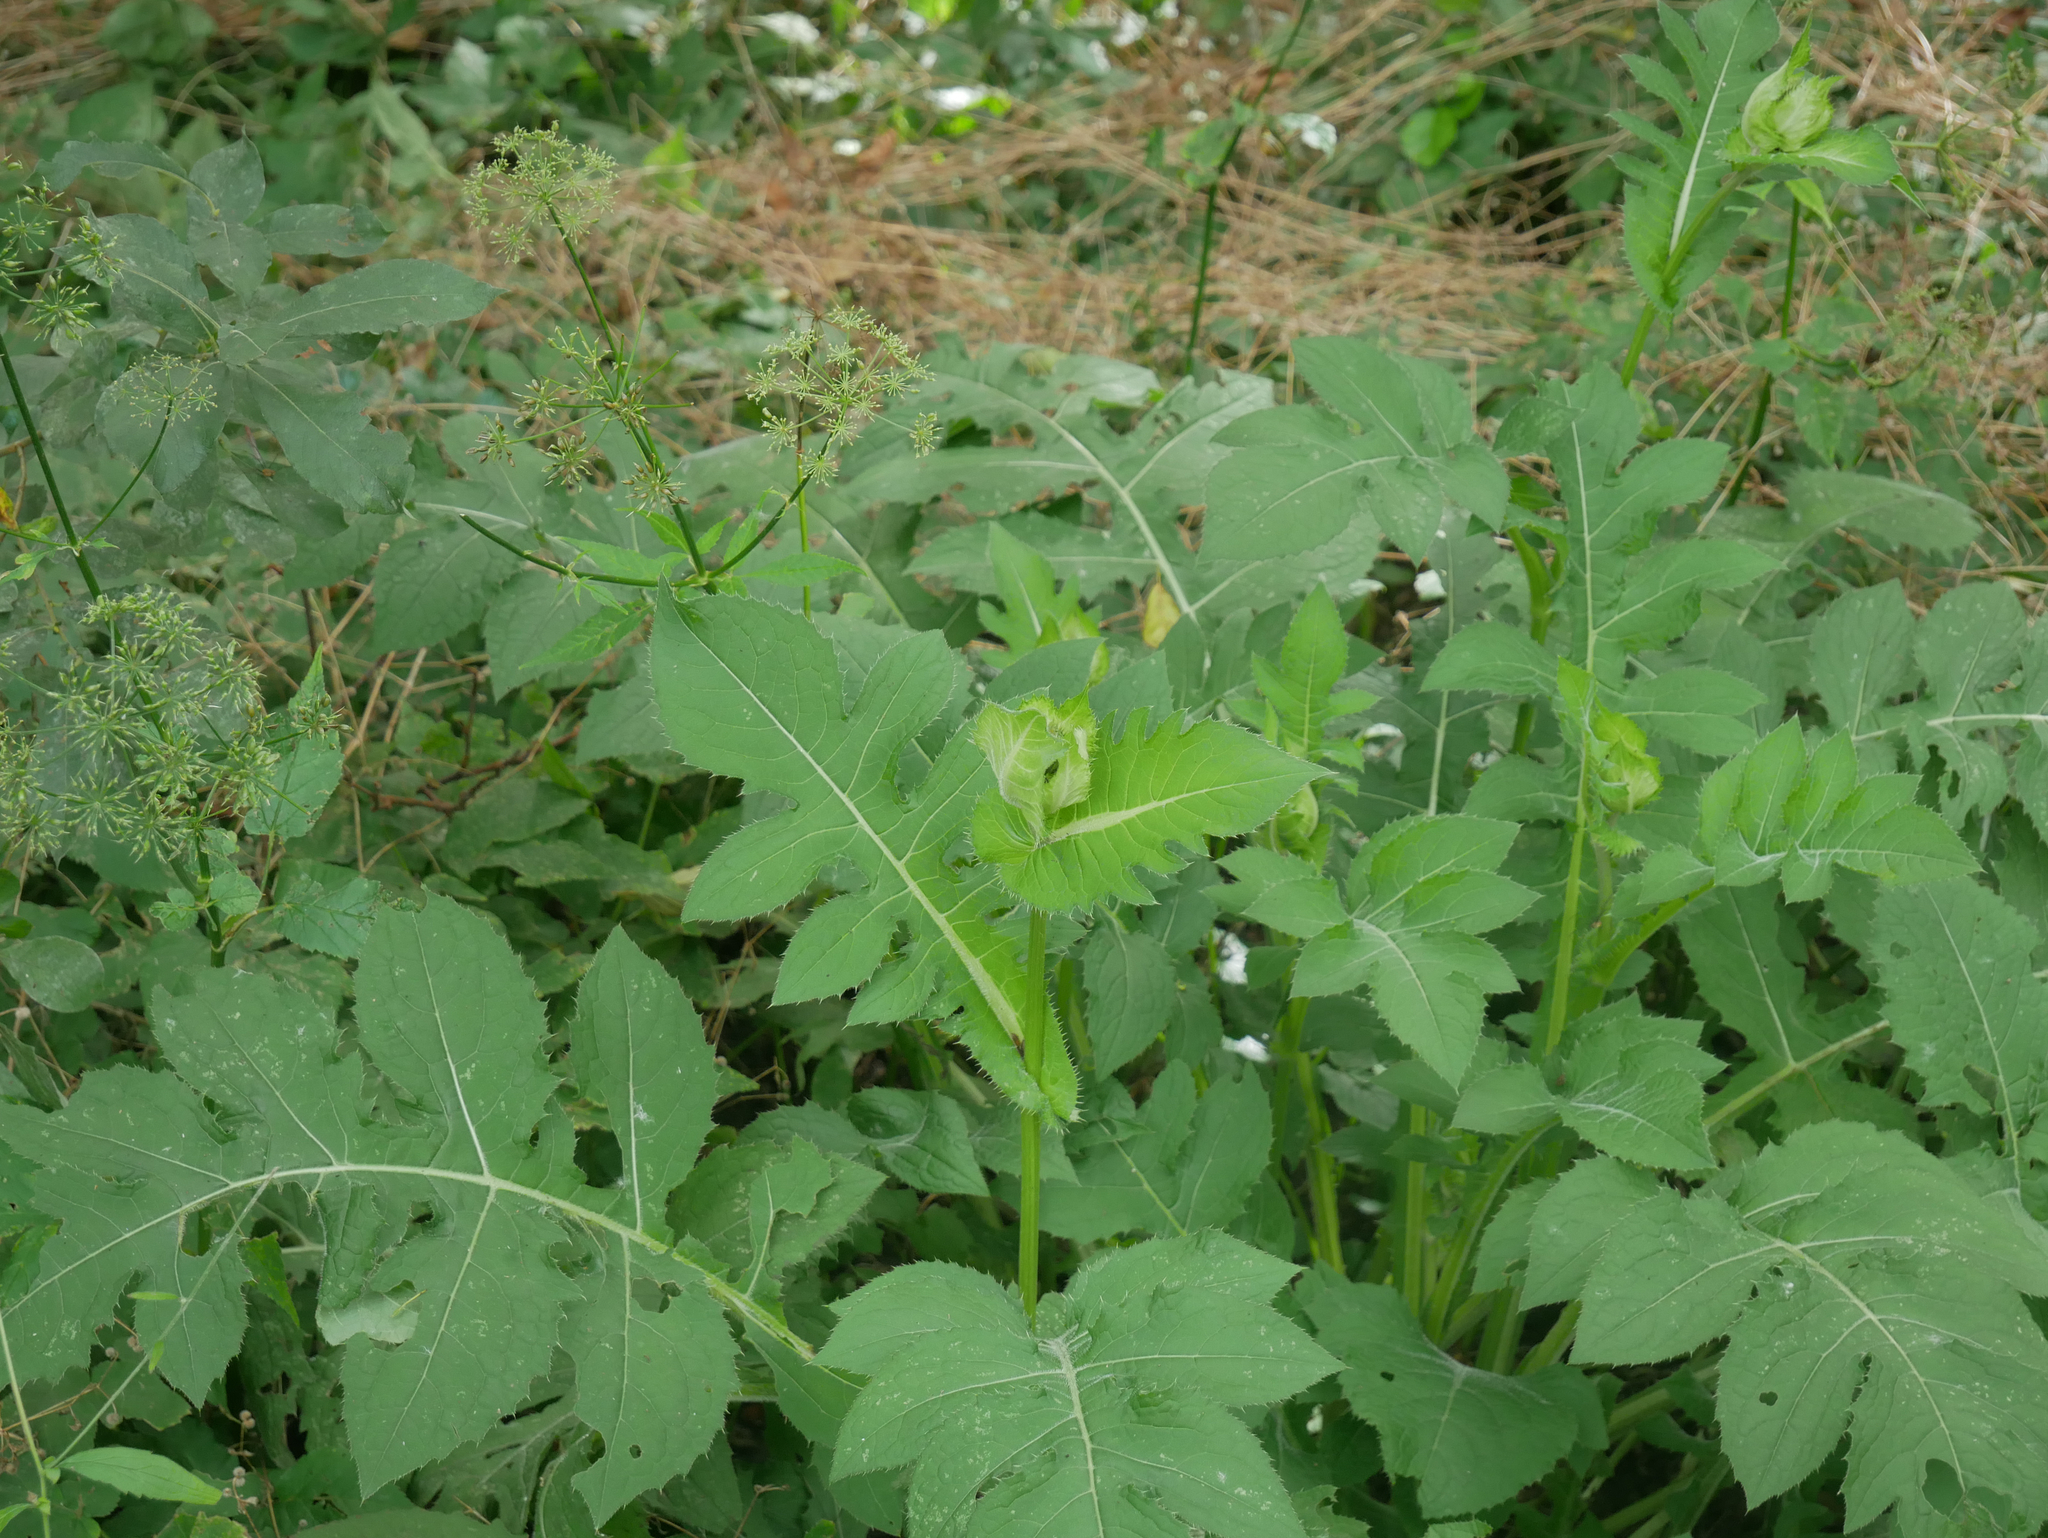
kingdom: Plantae
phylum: Tracheophyta
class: Magnoliopsida
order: Asterales
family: Asteraceae
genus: Cirsium
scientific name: Cirsium oleraceum
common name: Cabbage thistle
